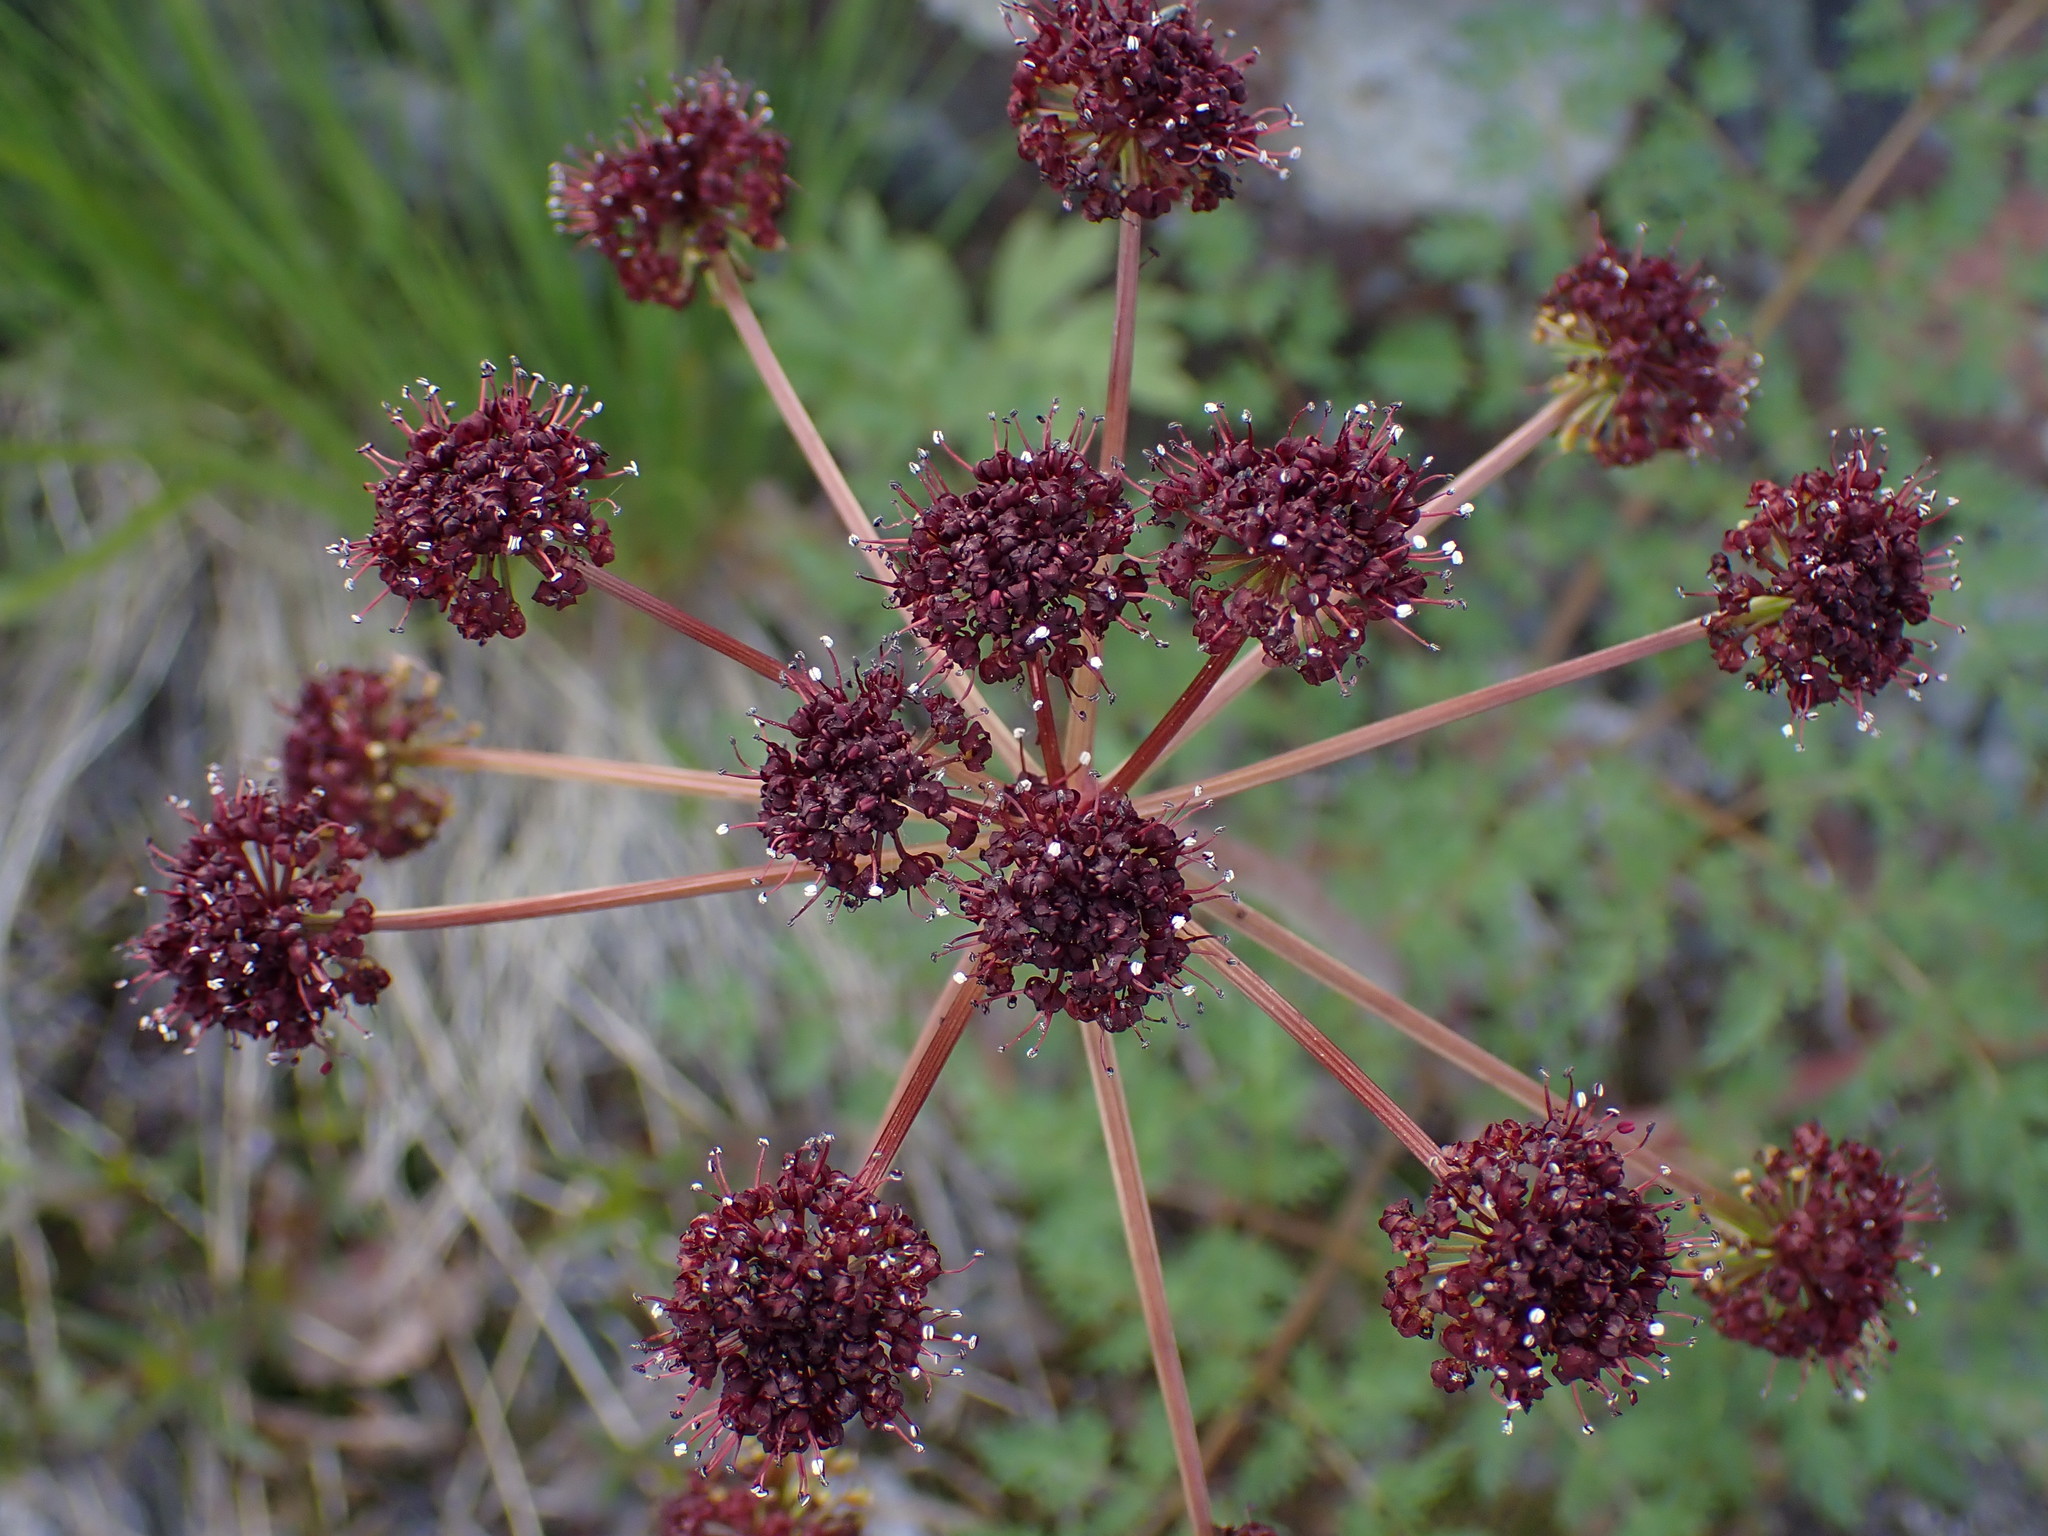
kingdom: Plantae
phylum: Tracheophyta
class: Magnoliopsida
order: Apiales
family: Apiaceae
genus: Lomatium
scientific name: Lomatium multifidum
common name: Carrot-leaved biscuitroot
